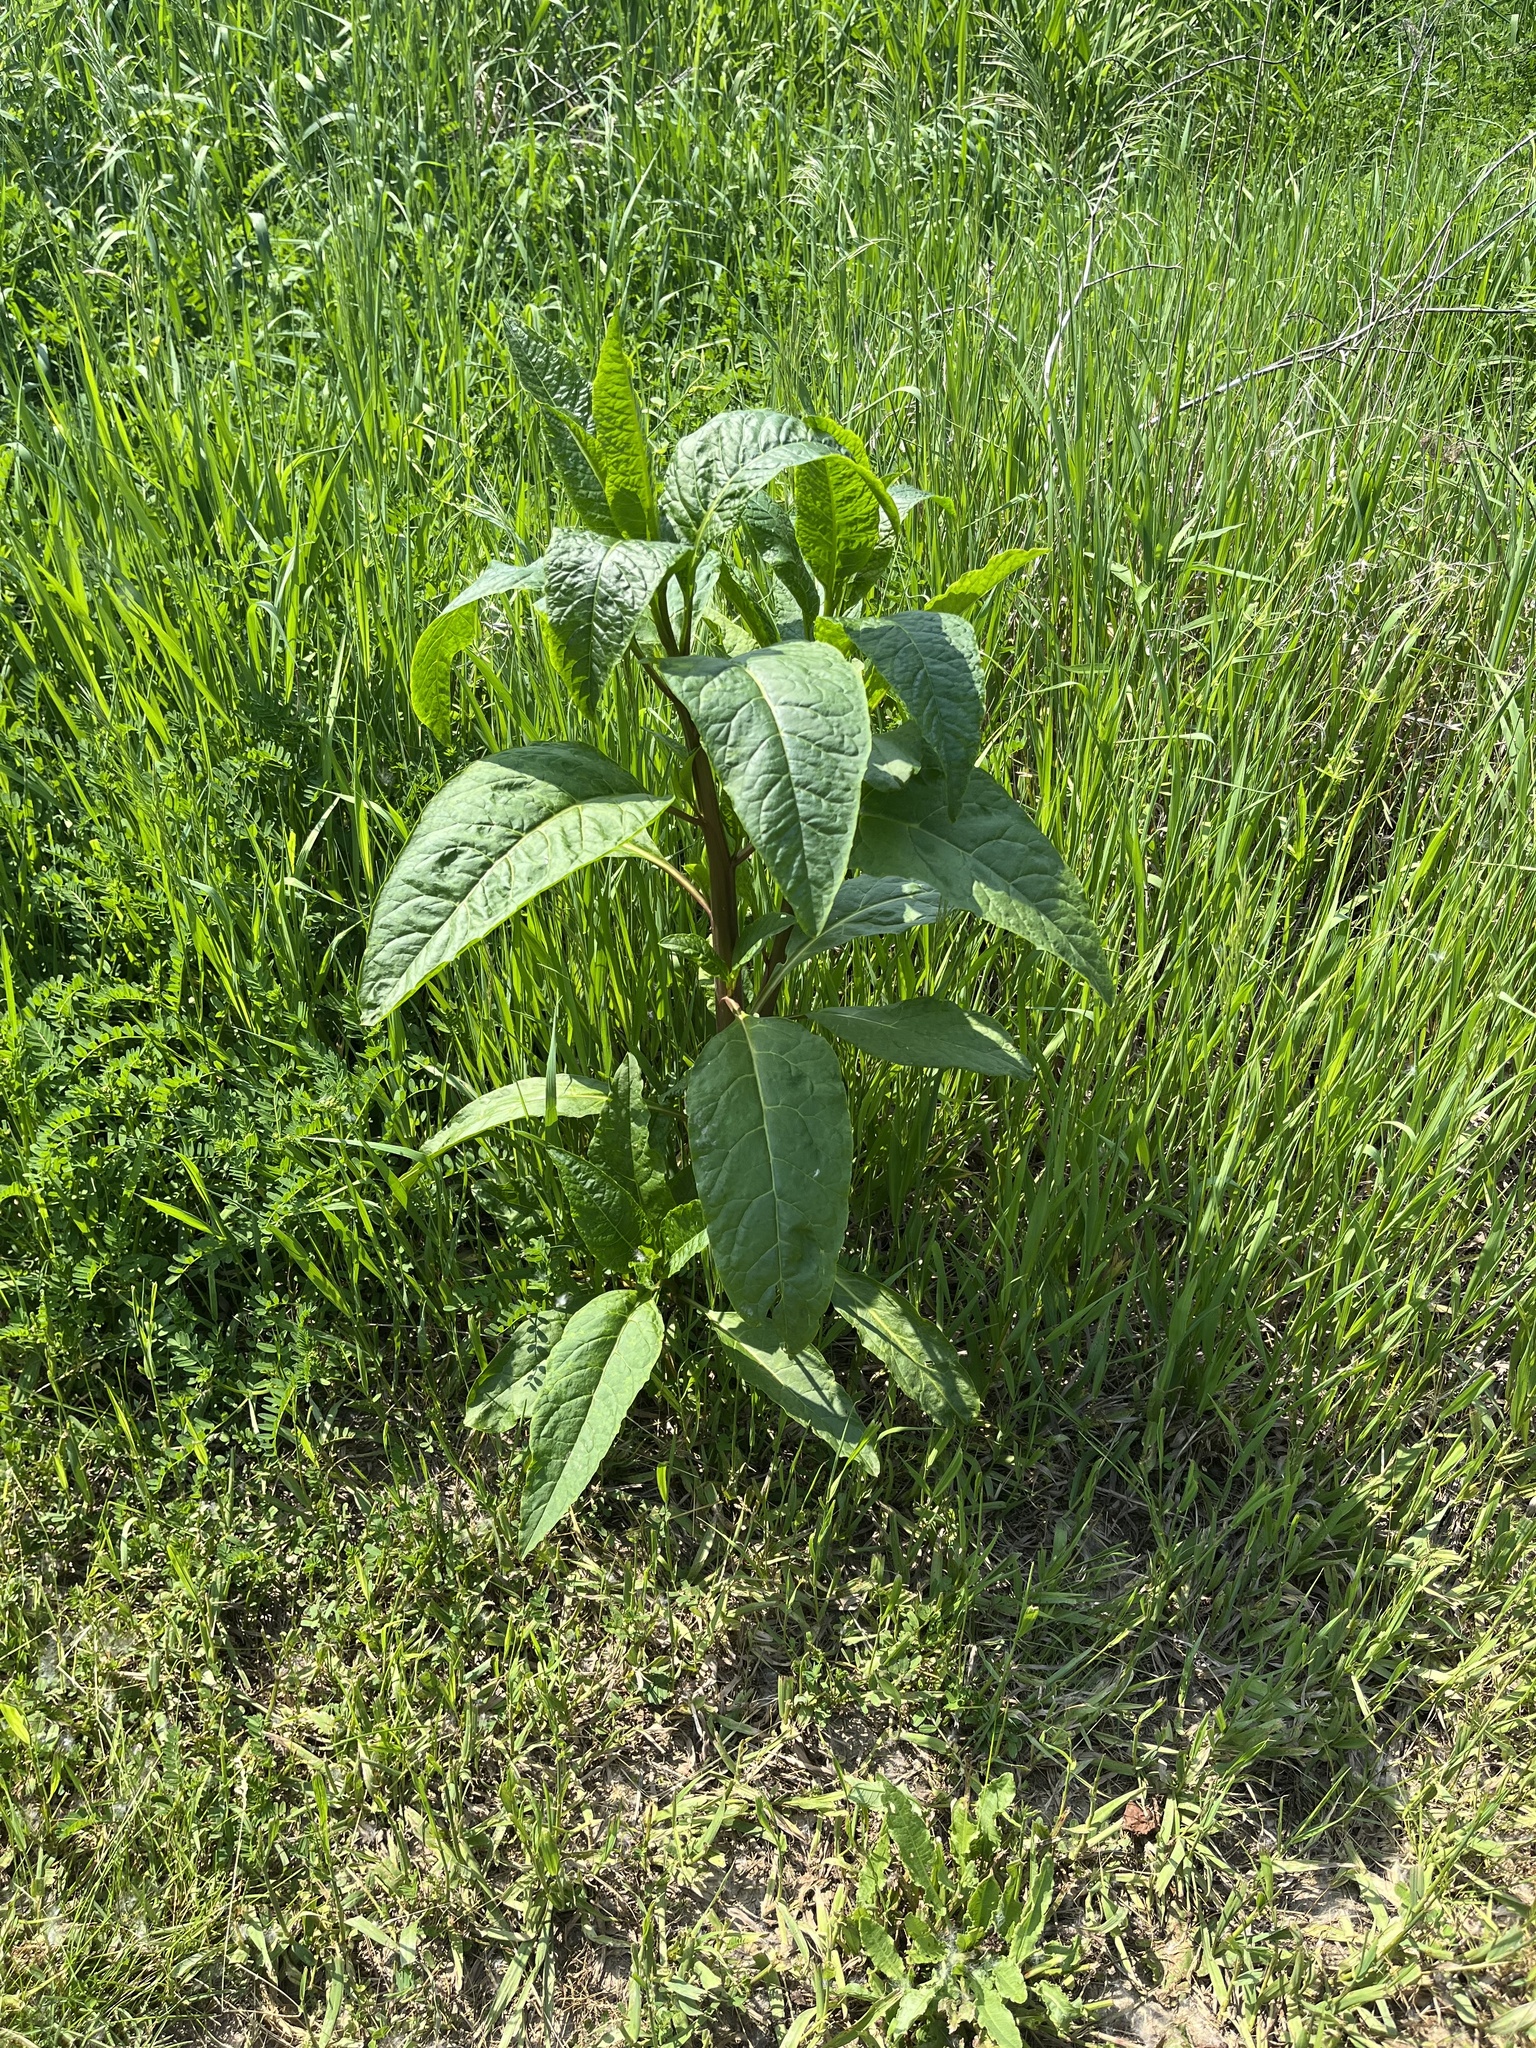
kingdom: Plantae
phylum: Tracheophyta
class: Magnoliopsida
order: Caryophyllales
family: Phytolaccaceae
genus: Phytolacca
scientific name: Phytolacca americana
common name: American pokeweed
